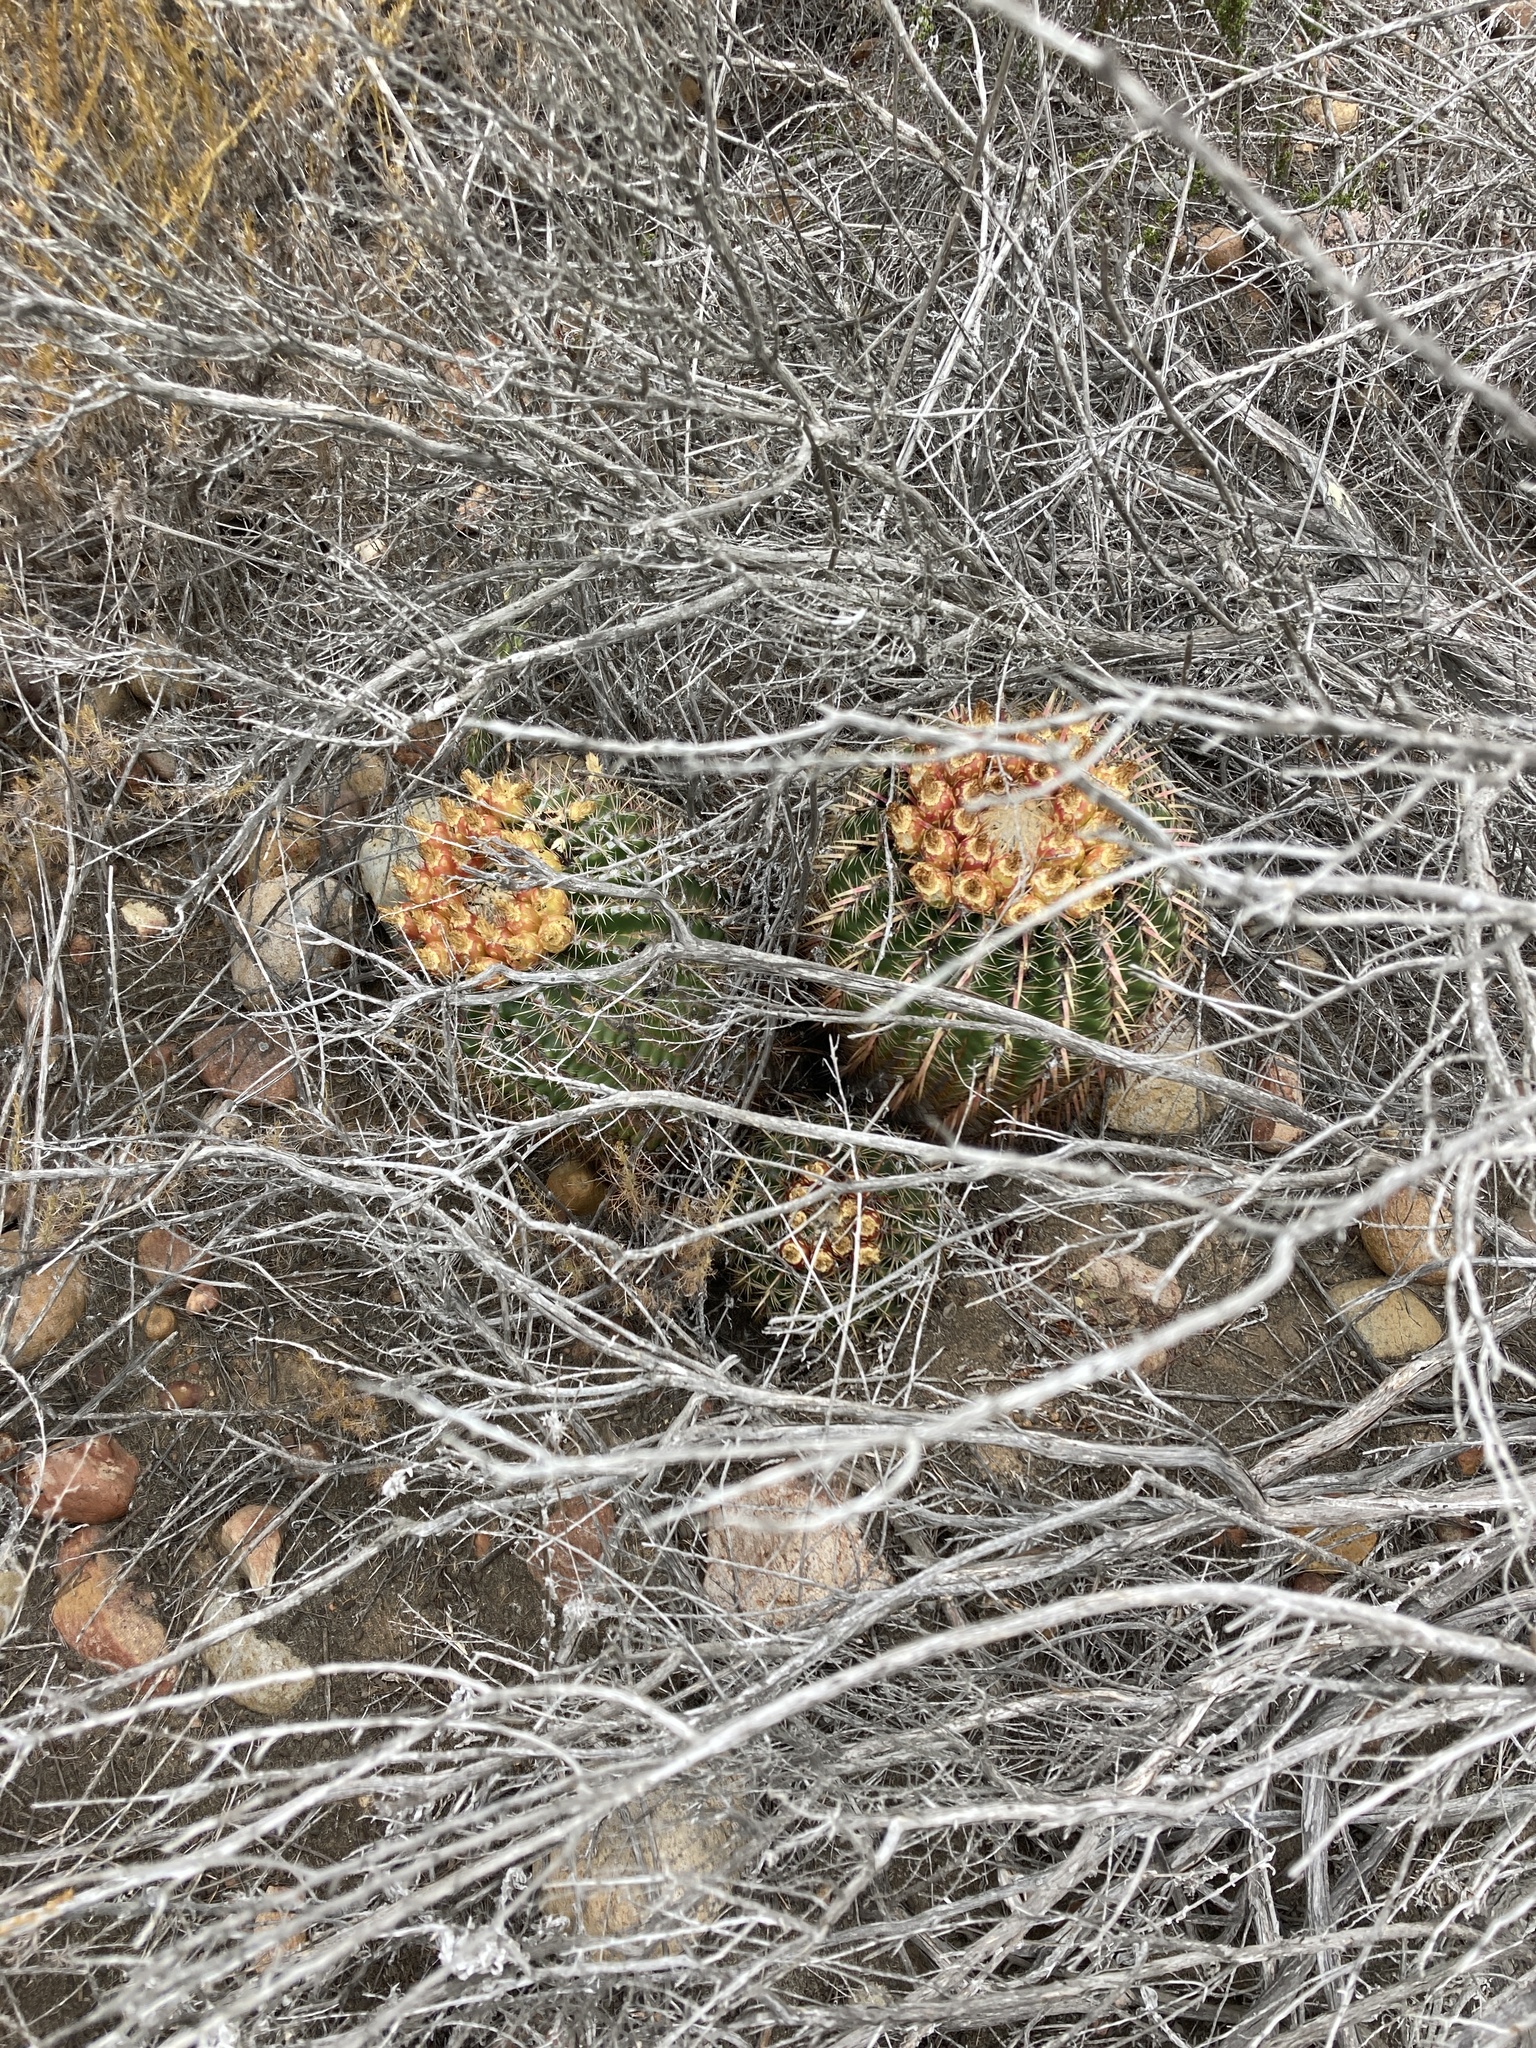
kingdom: Plantae
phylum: Tracheophyta
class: Magnoliopsida
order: Caryophyllales
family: Cactaceae
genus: Ferocactus
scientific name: Ferocactus viridescens
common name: San diego barrel cactus
